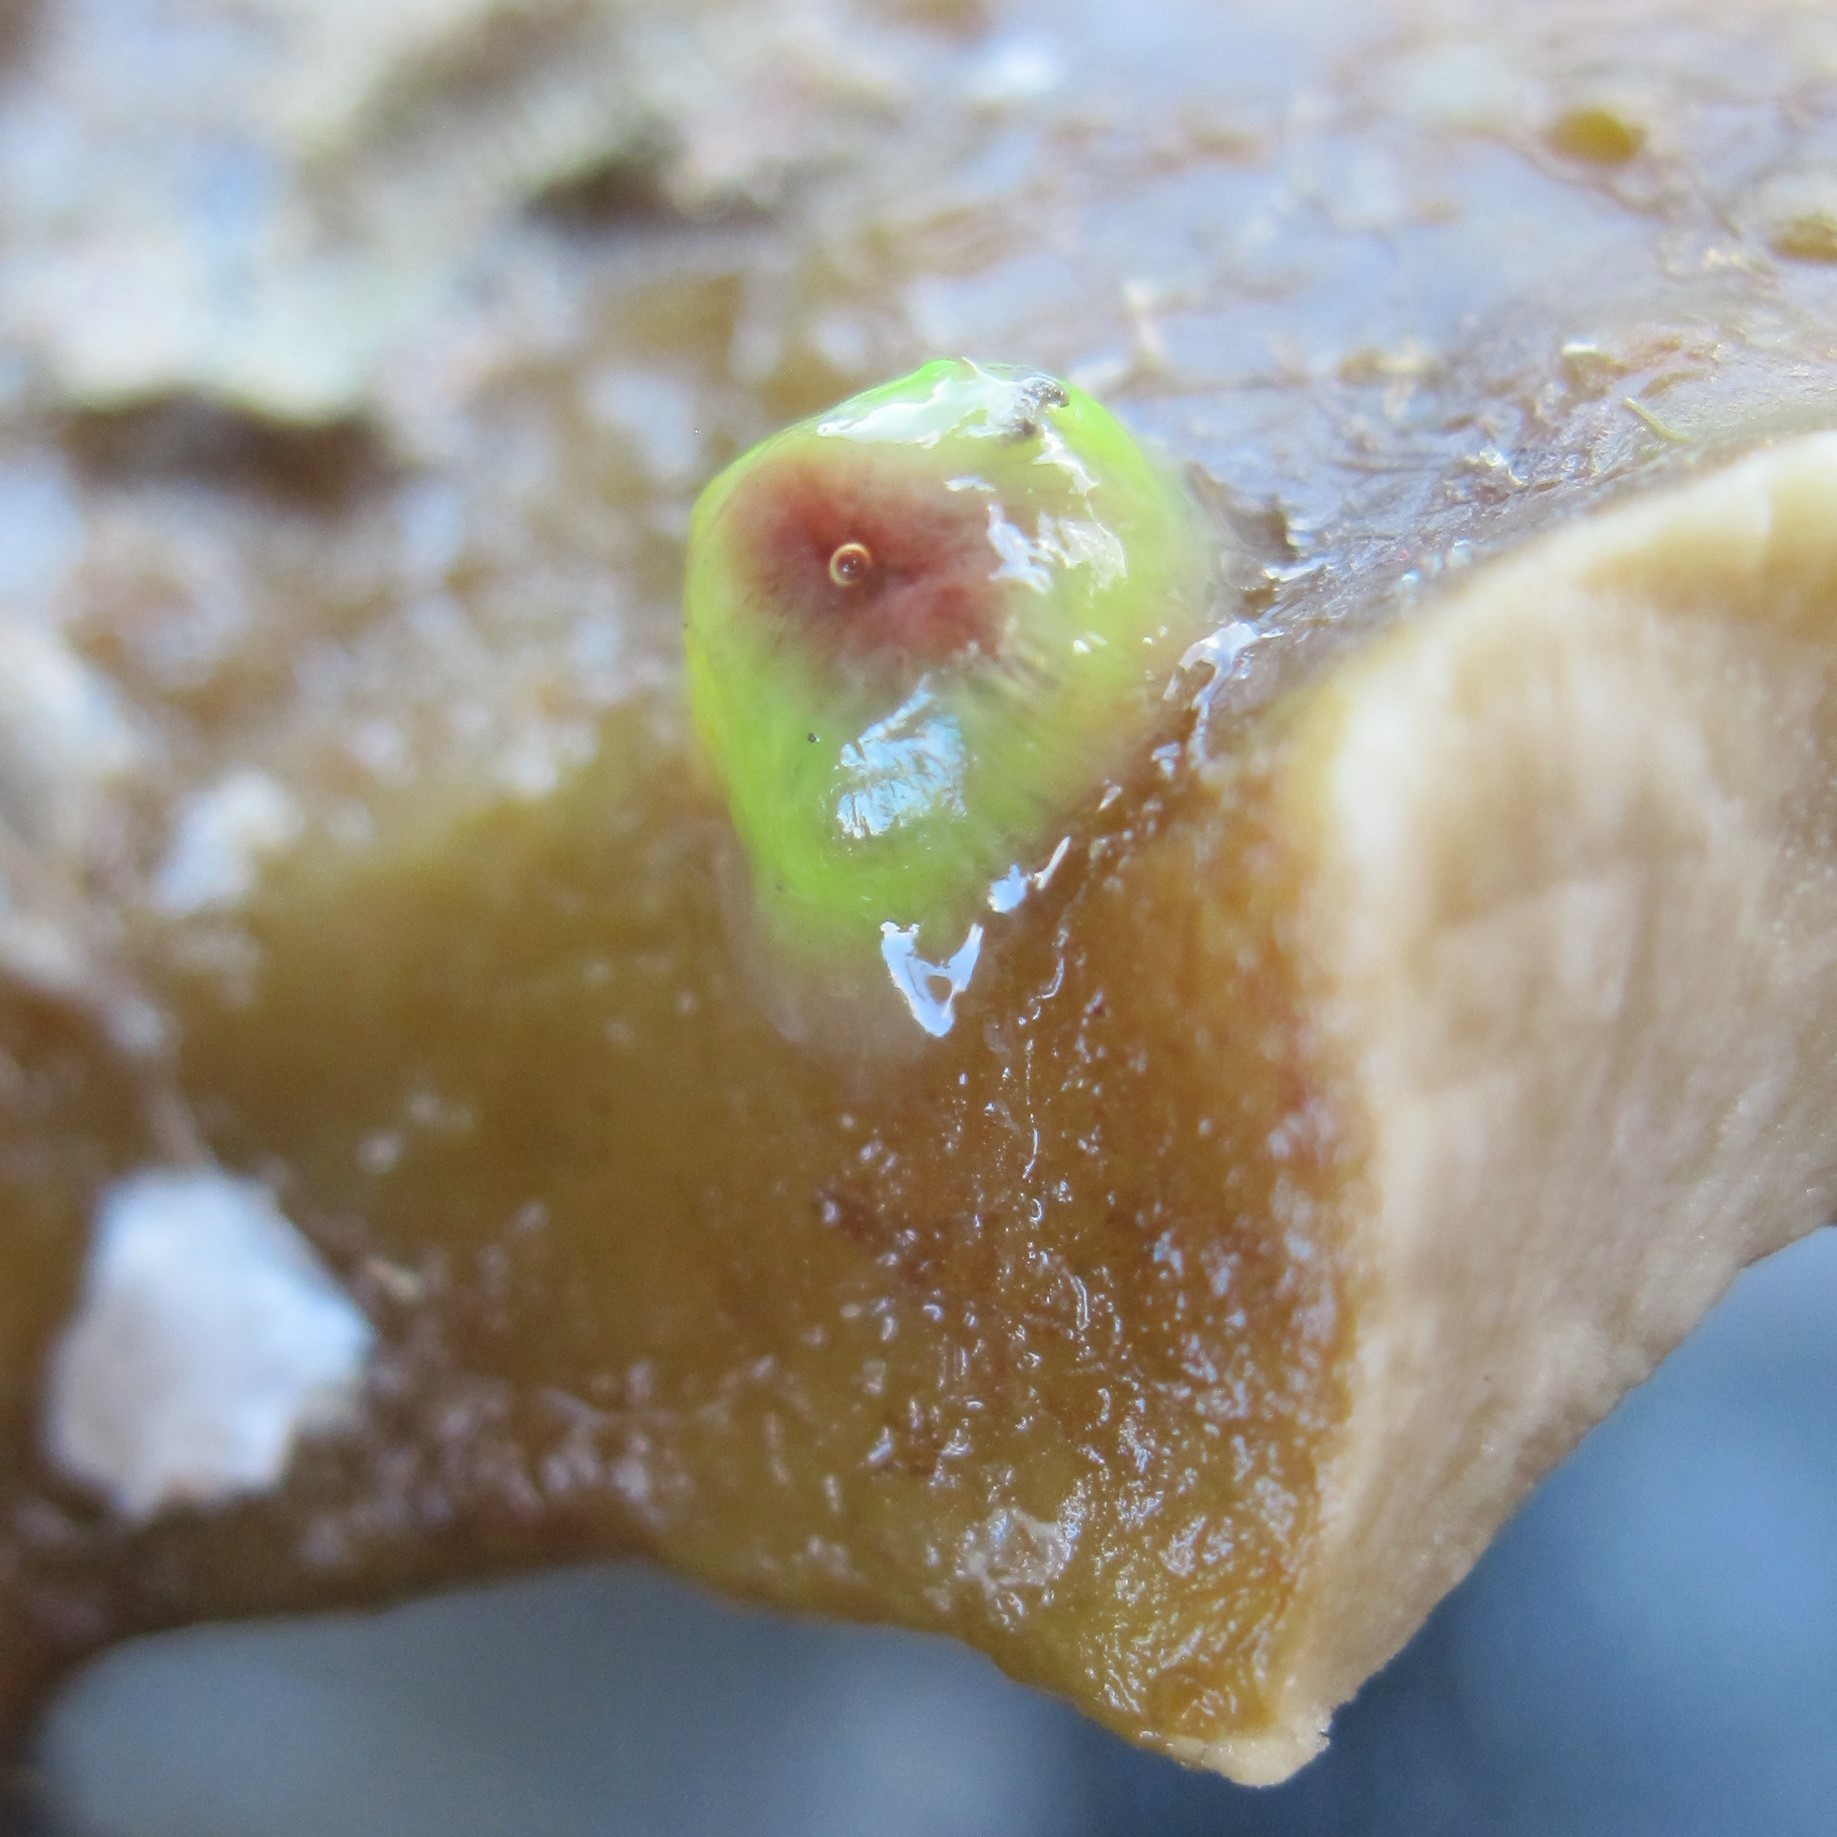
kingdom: Animalia
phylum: Cnidaria
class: Anthozoa
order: Actiniaria
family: Hormathiidae
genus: Handactis
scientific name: Handactis nutrix
